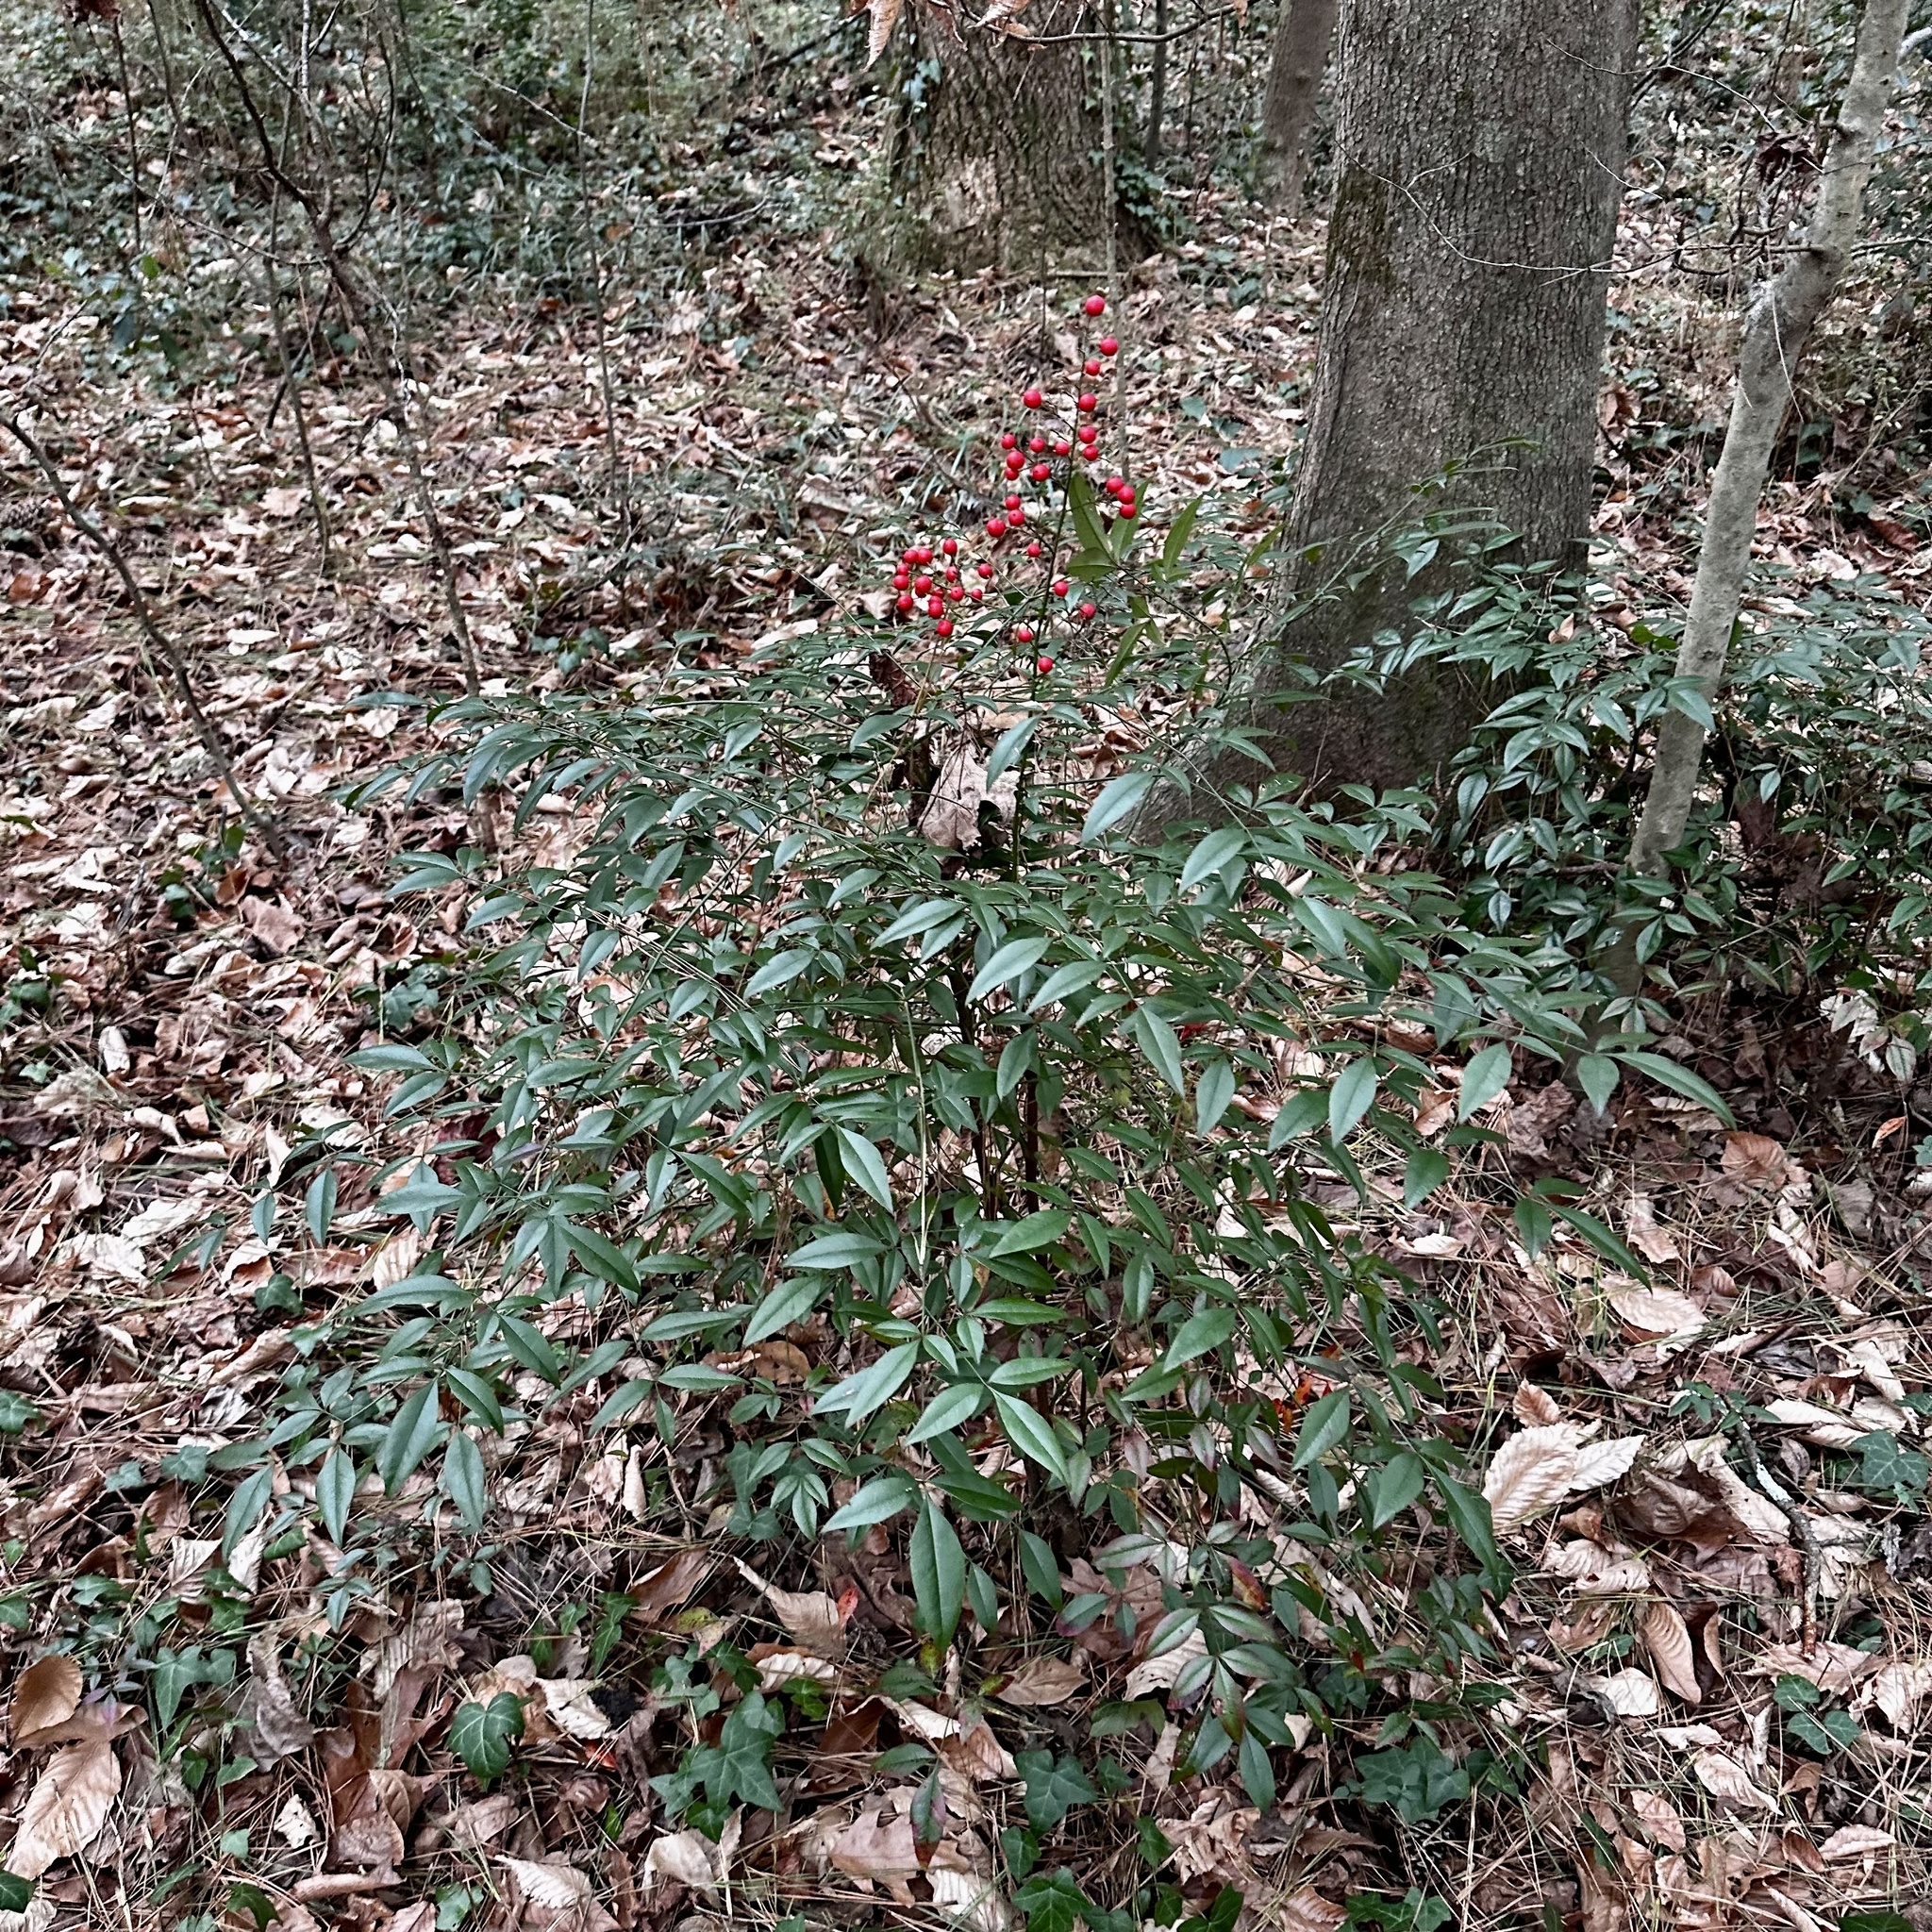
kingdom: Plantae
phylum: Tracheophyta
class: Magnoliopsida
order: Ranunculales
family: Berberidaceae
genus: Nandina
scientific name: Nandina domestica
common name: Sacred bamboo
